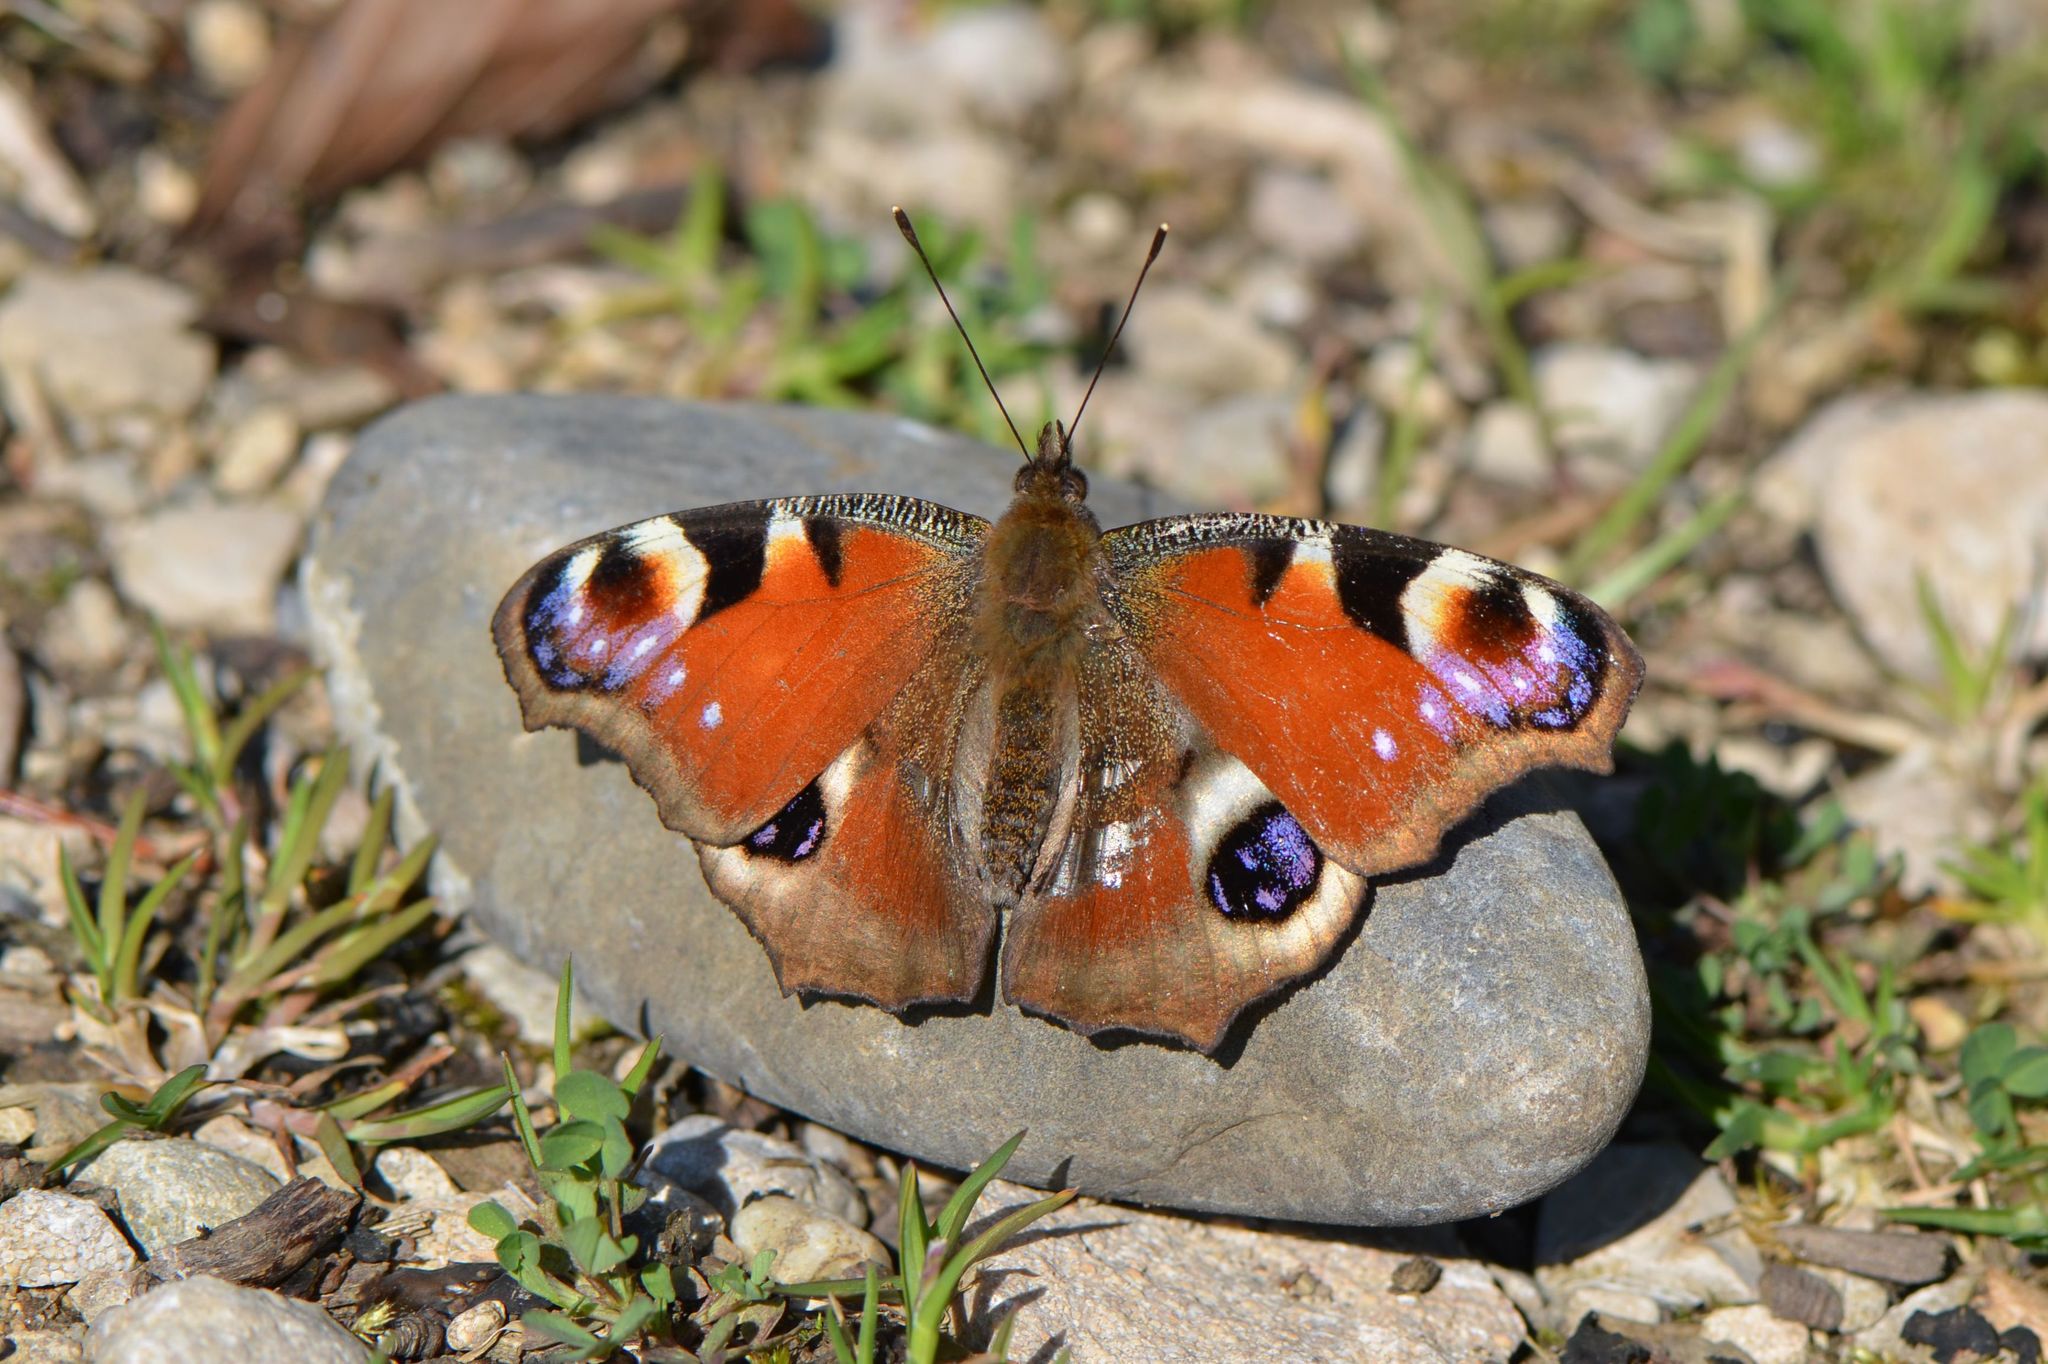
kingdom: Animalia
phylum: Arthropoda
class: Insecta
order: Lepidoptera
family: Nymphalidae
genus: Aglais
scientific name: Aglais io
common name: Peacock
